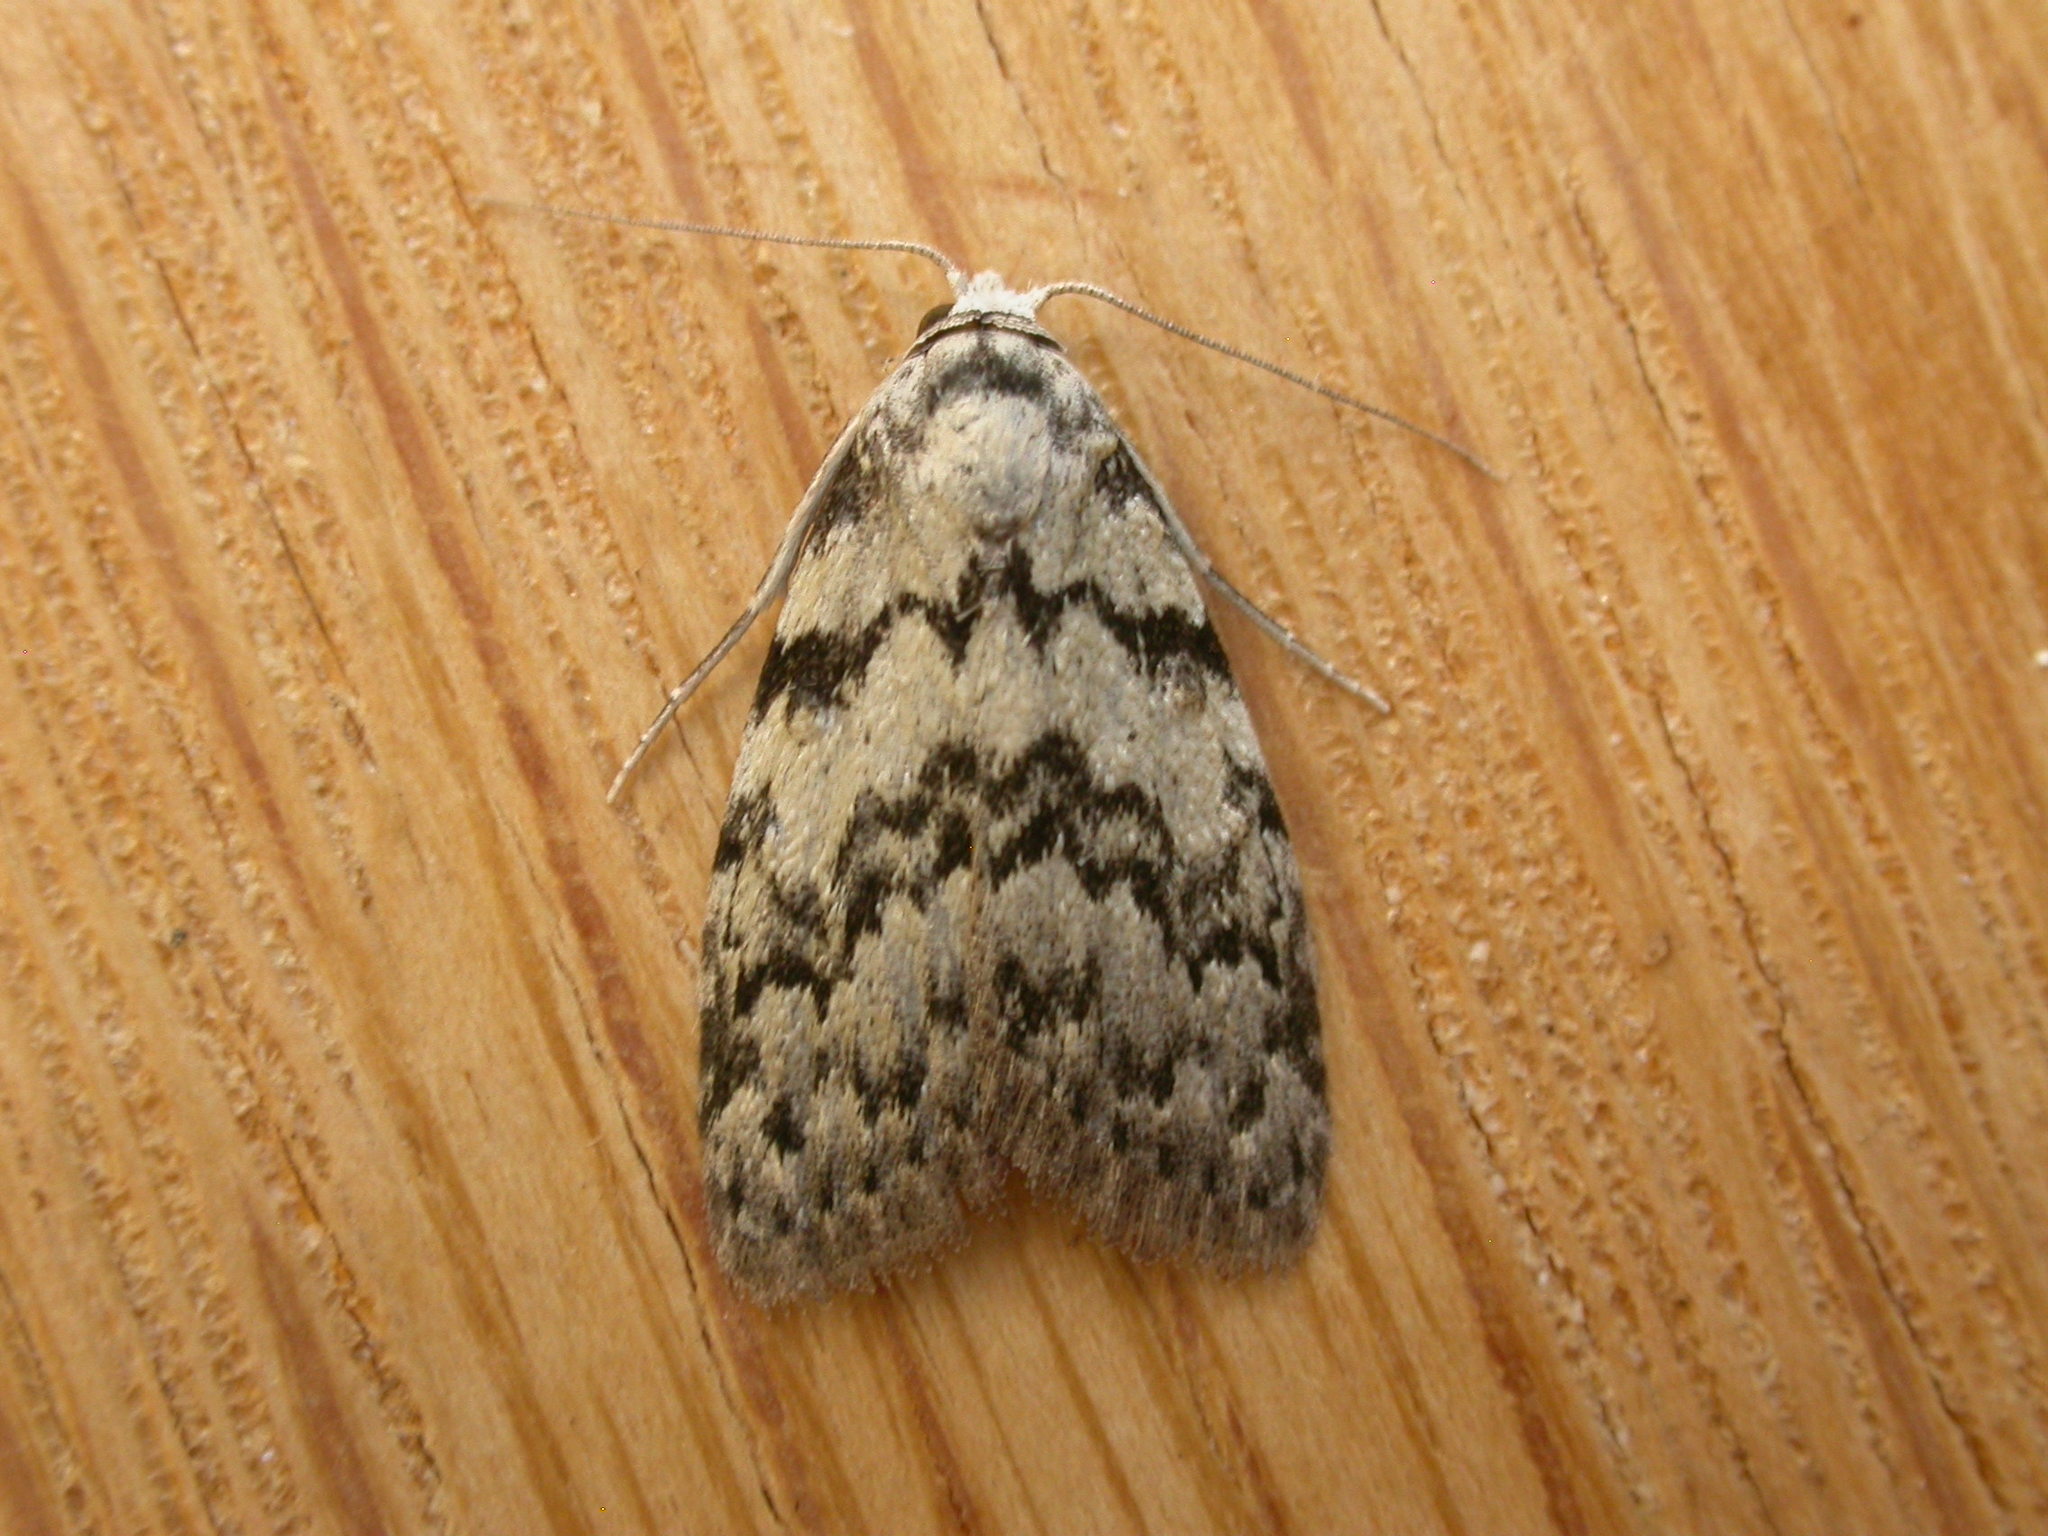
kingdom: Animalia
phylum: Arthropoda
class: Insecta
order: Lepidoptera
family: Nolidae
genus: Nola
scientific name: Nola melanogramma
